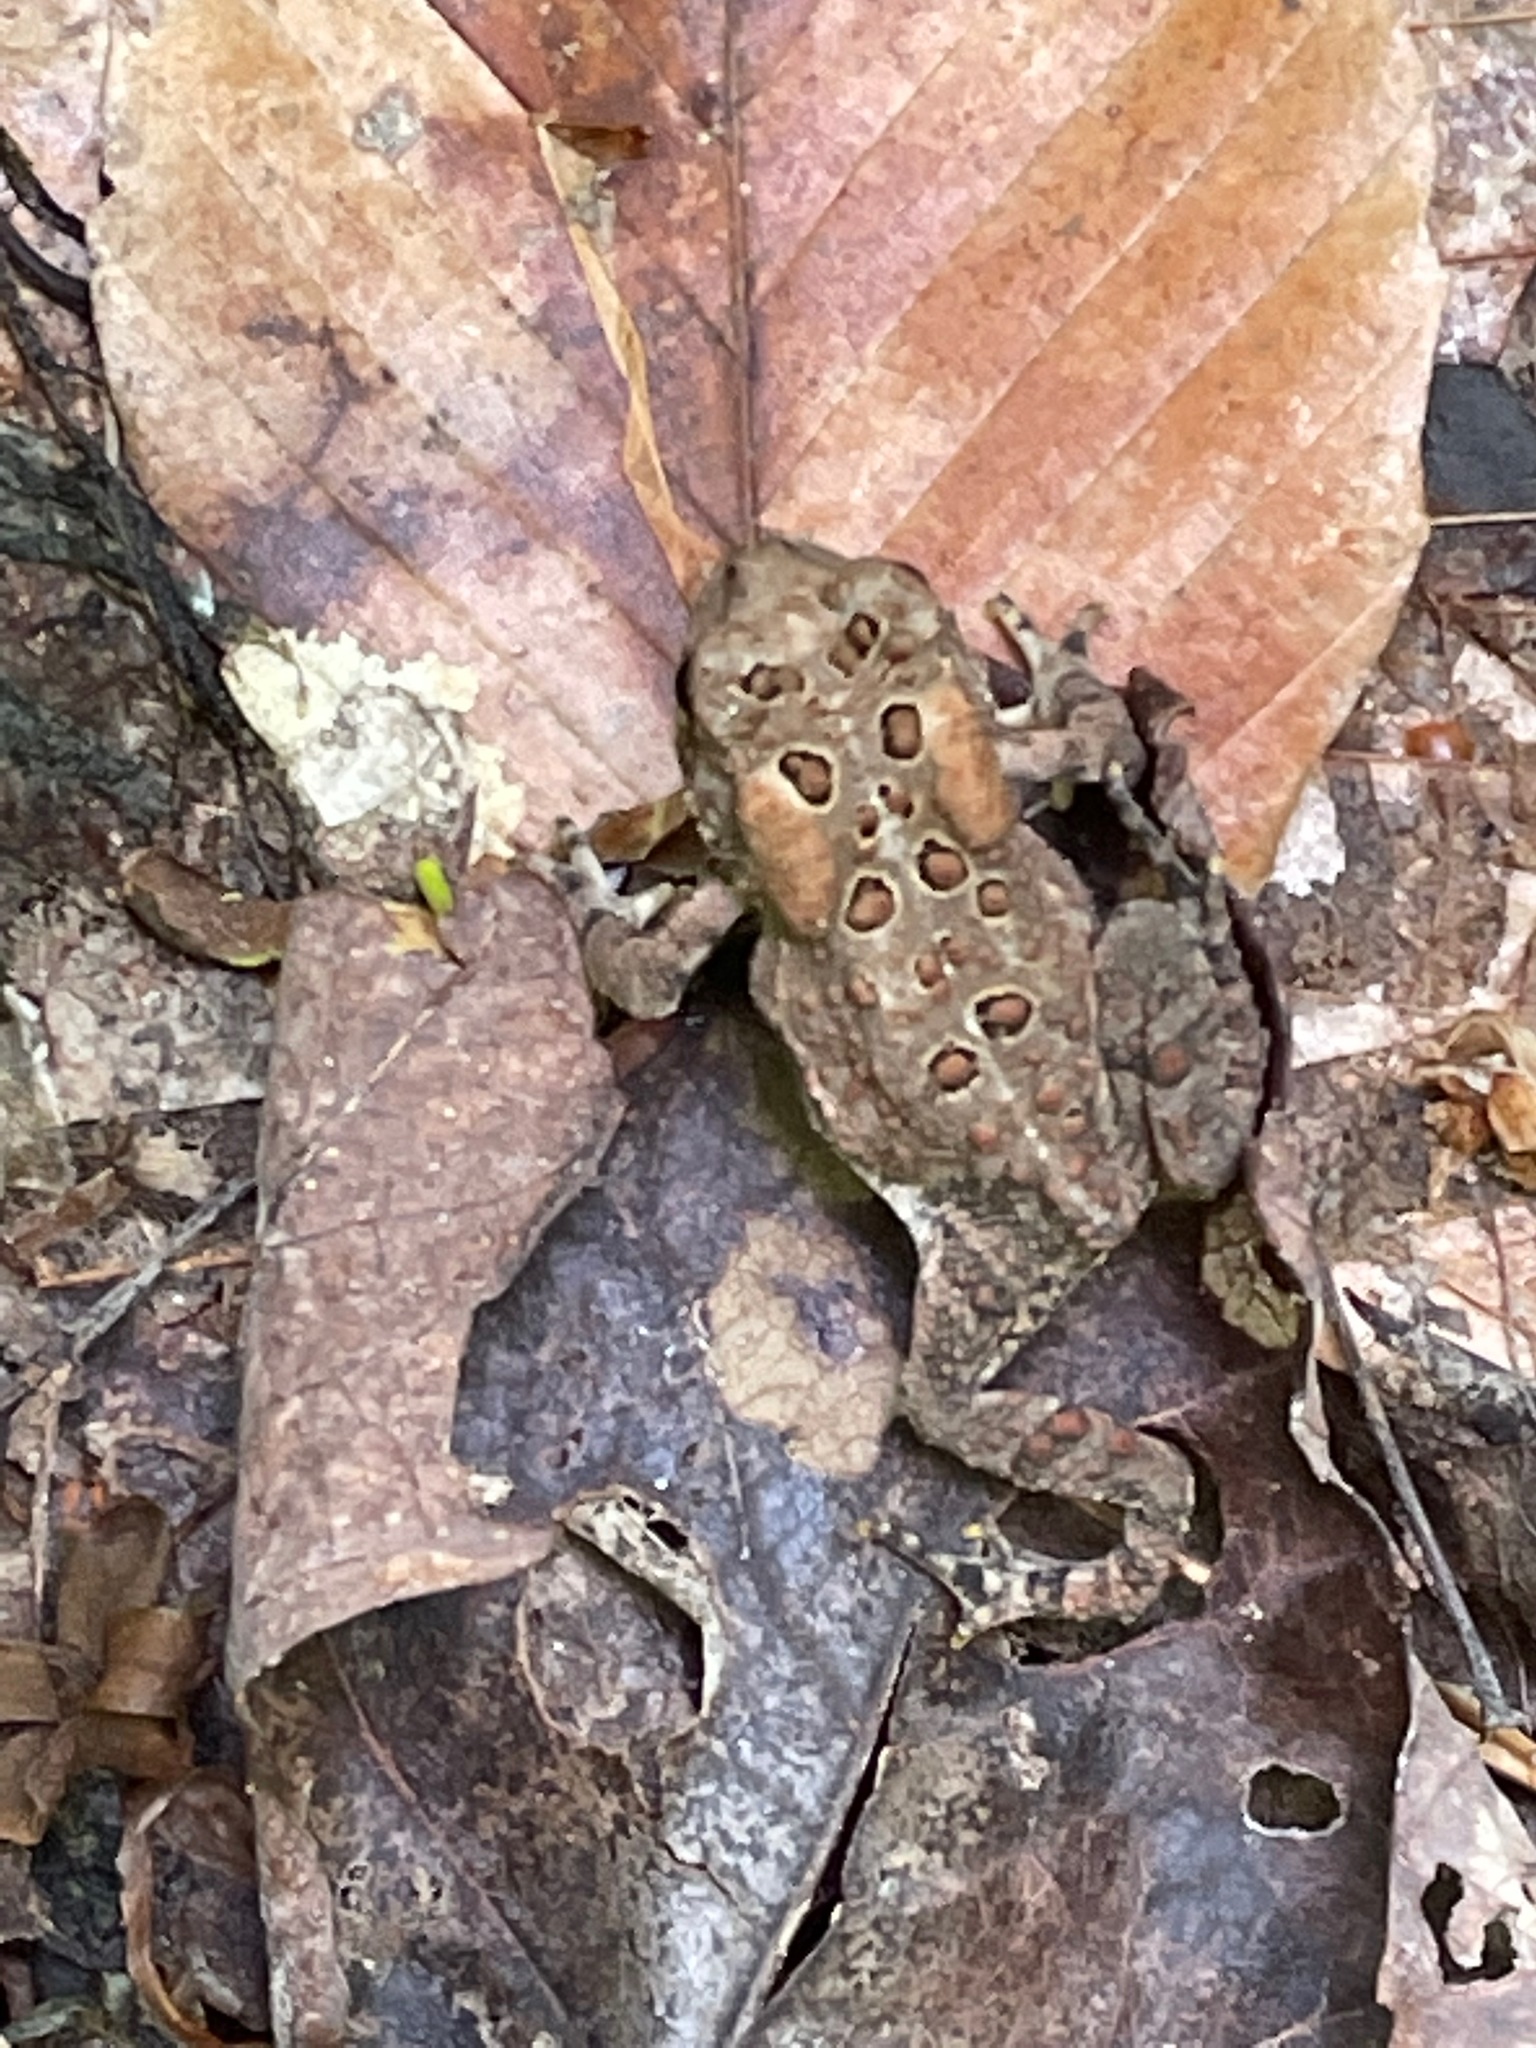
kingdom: Animalia
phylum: Chordata
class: Amphibia
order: Anura
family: Bufonidae
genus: Anaxyrus
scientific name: Anaxyrus americanus
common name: American toad
